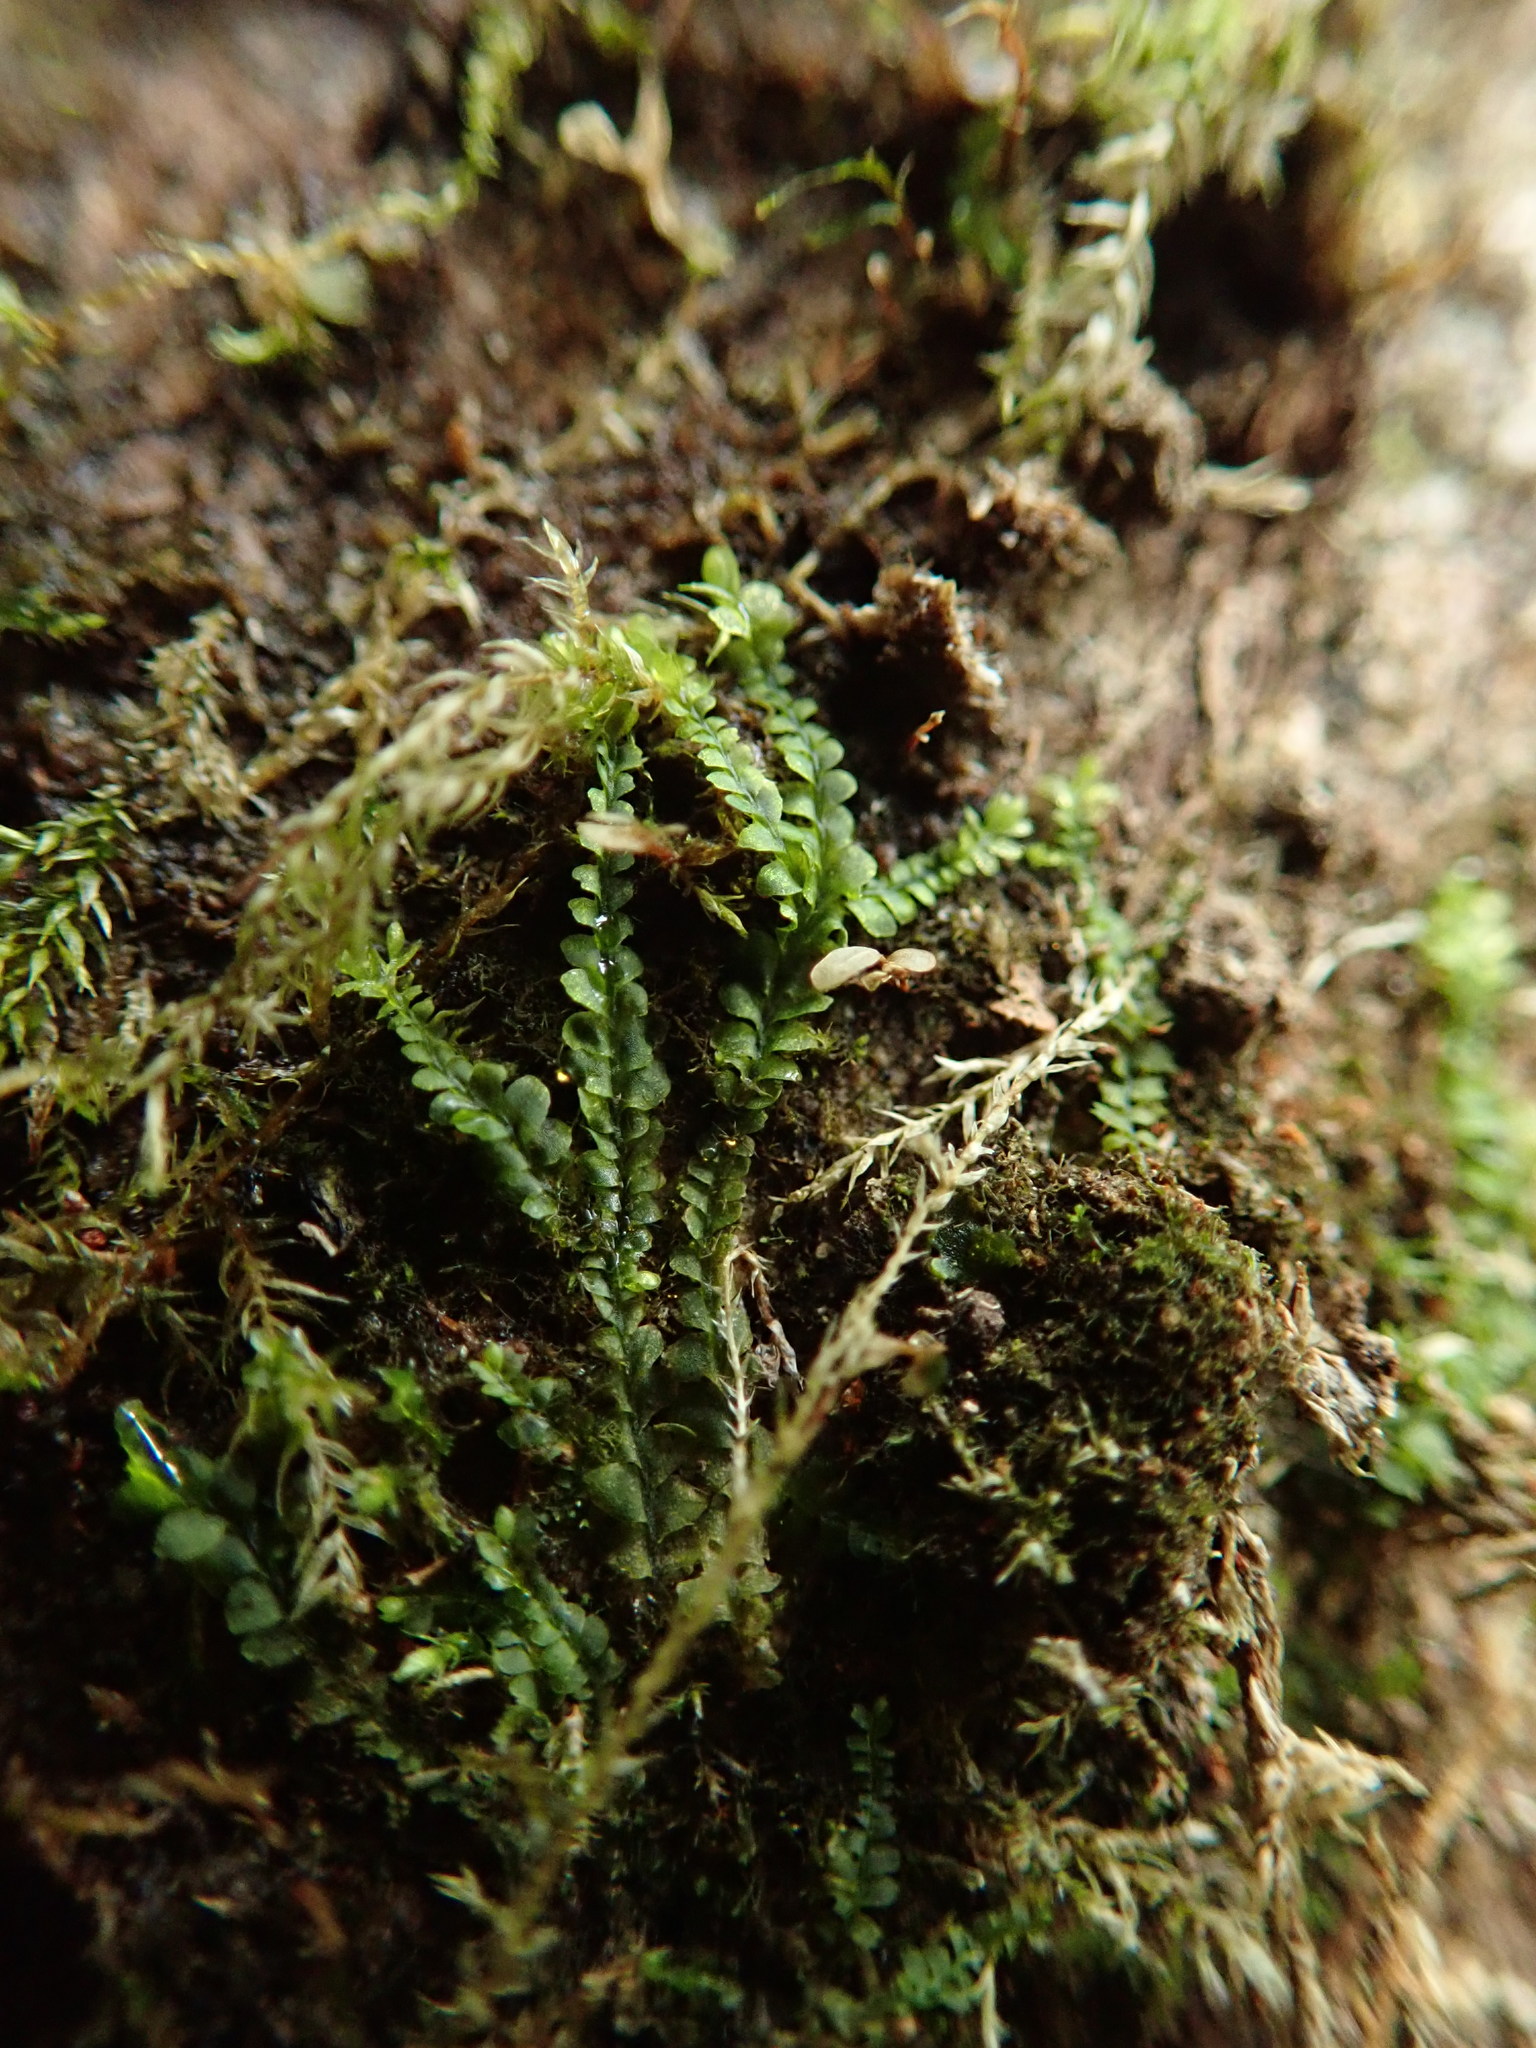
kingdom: Plantae
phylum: Marchantiophyta
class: Jungermanniopsida
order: Jungermanniales
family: Lophocoleaceae
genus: Chiloscyphus
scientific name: Chiloscyphus polyanthos
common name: Square-leaved crestwort
